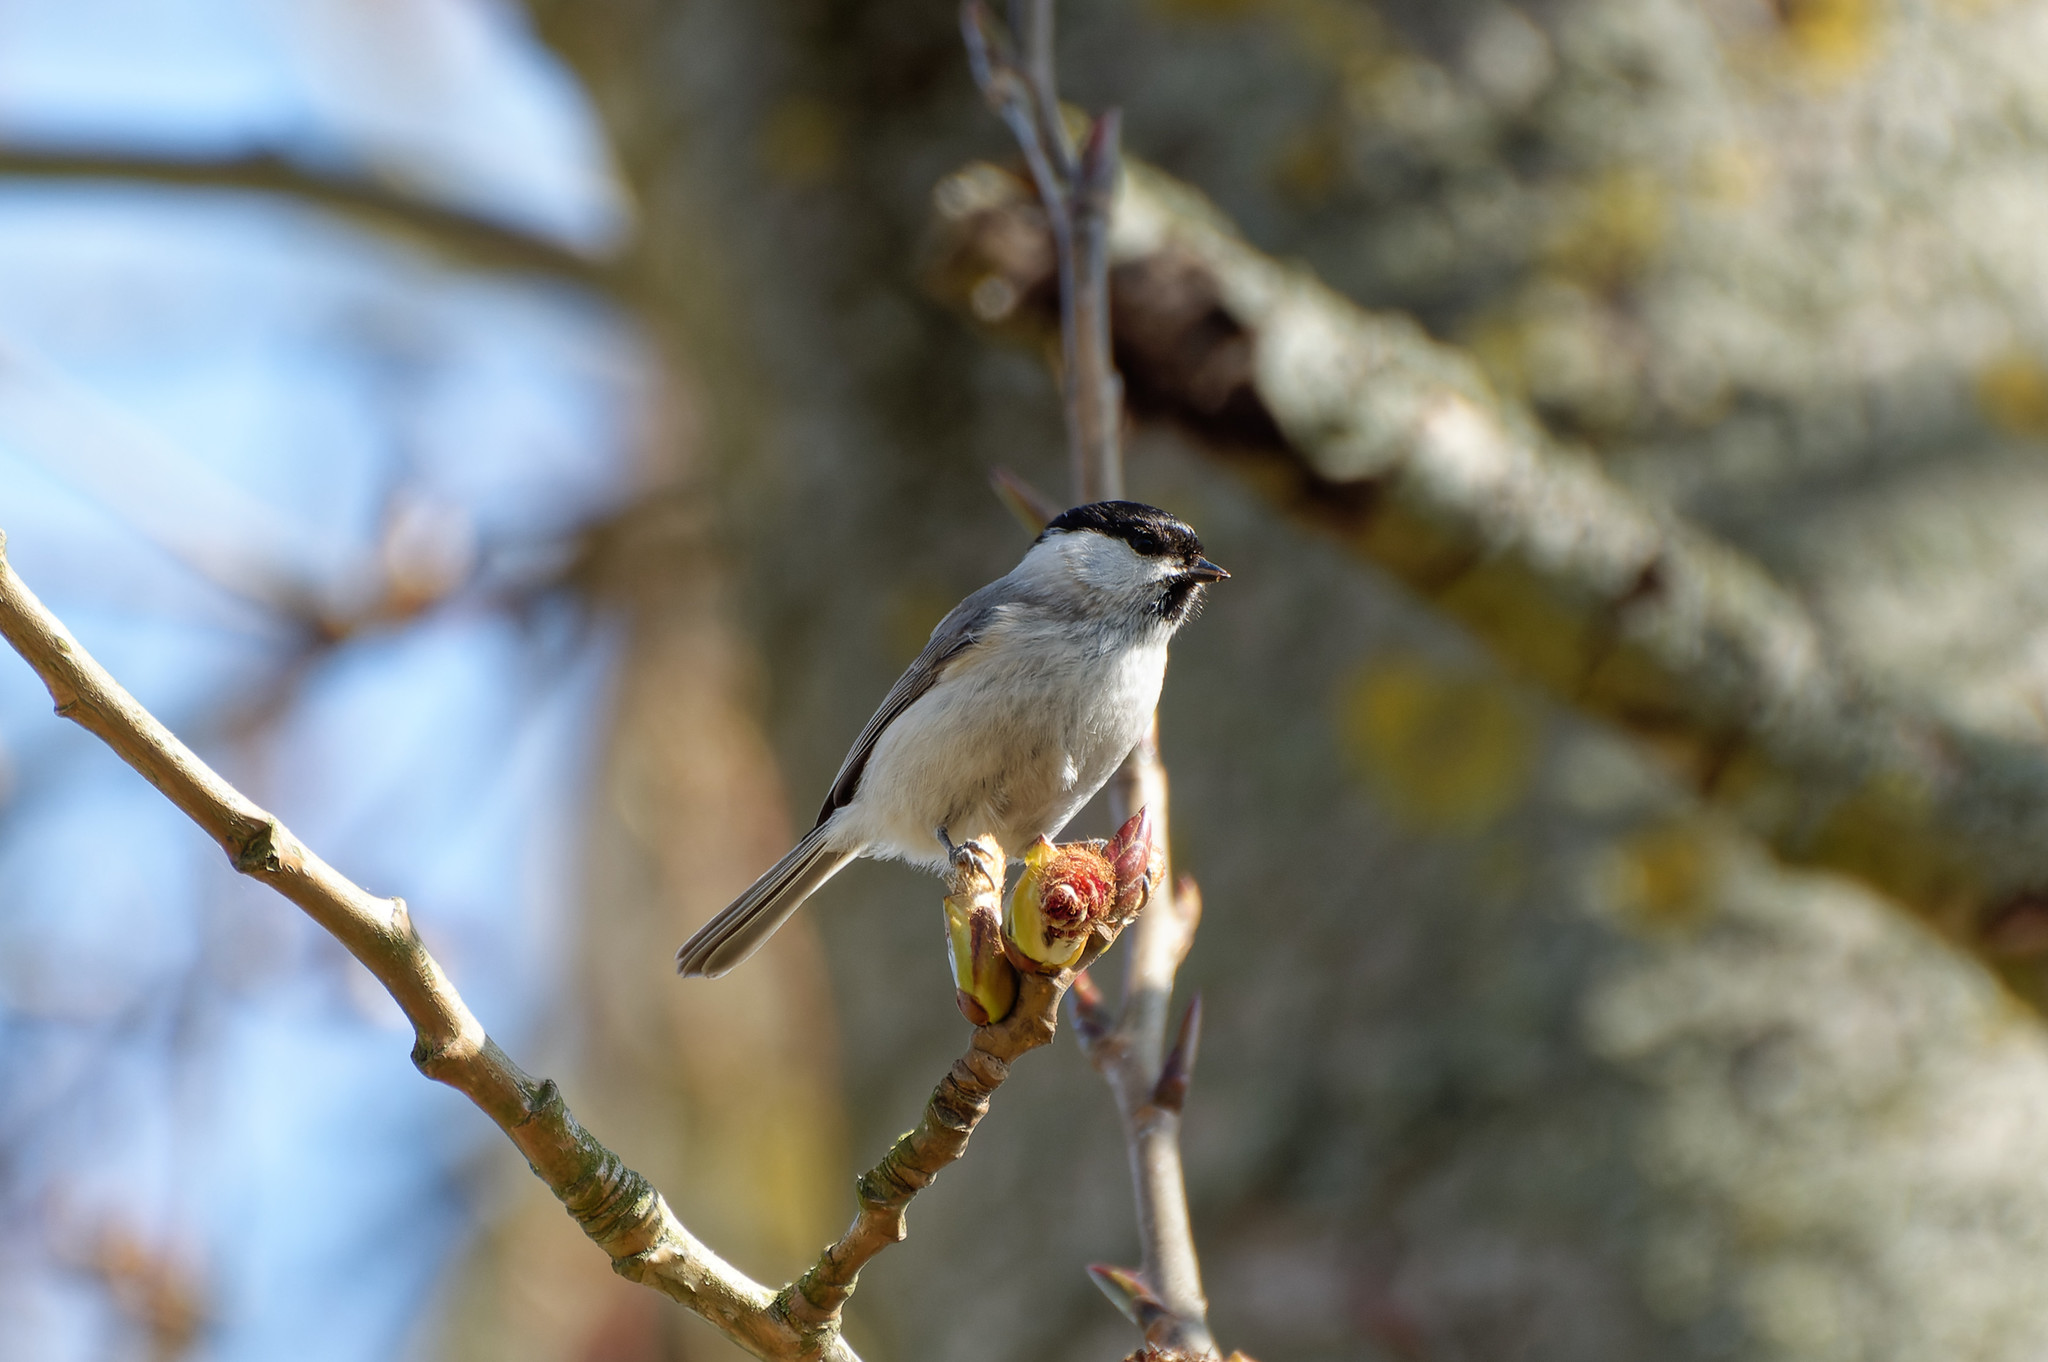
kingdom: Animalia
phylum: Chordata
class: Aves
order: Passeriformes
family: Paridae
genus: Poecile
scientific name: Poecile palustris
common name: Marsh tit
